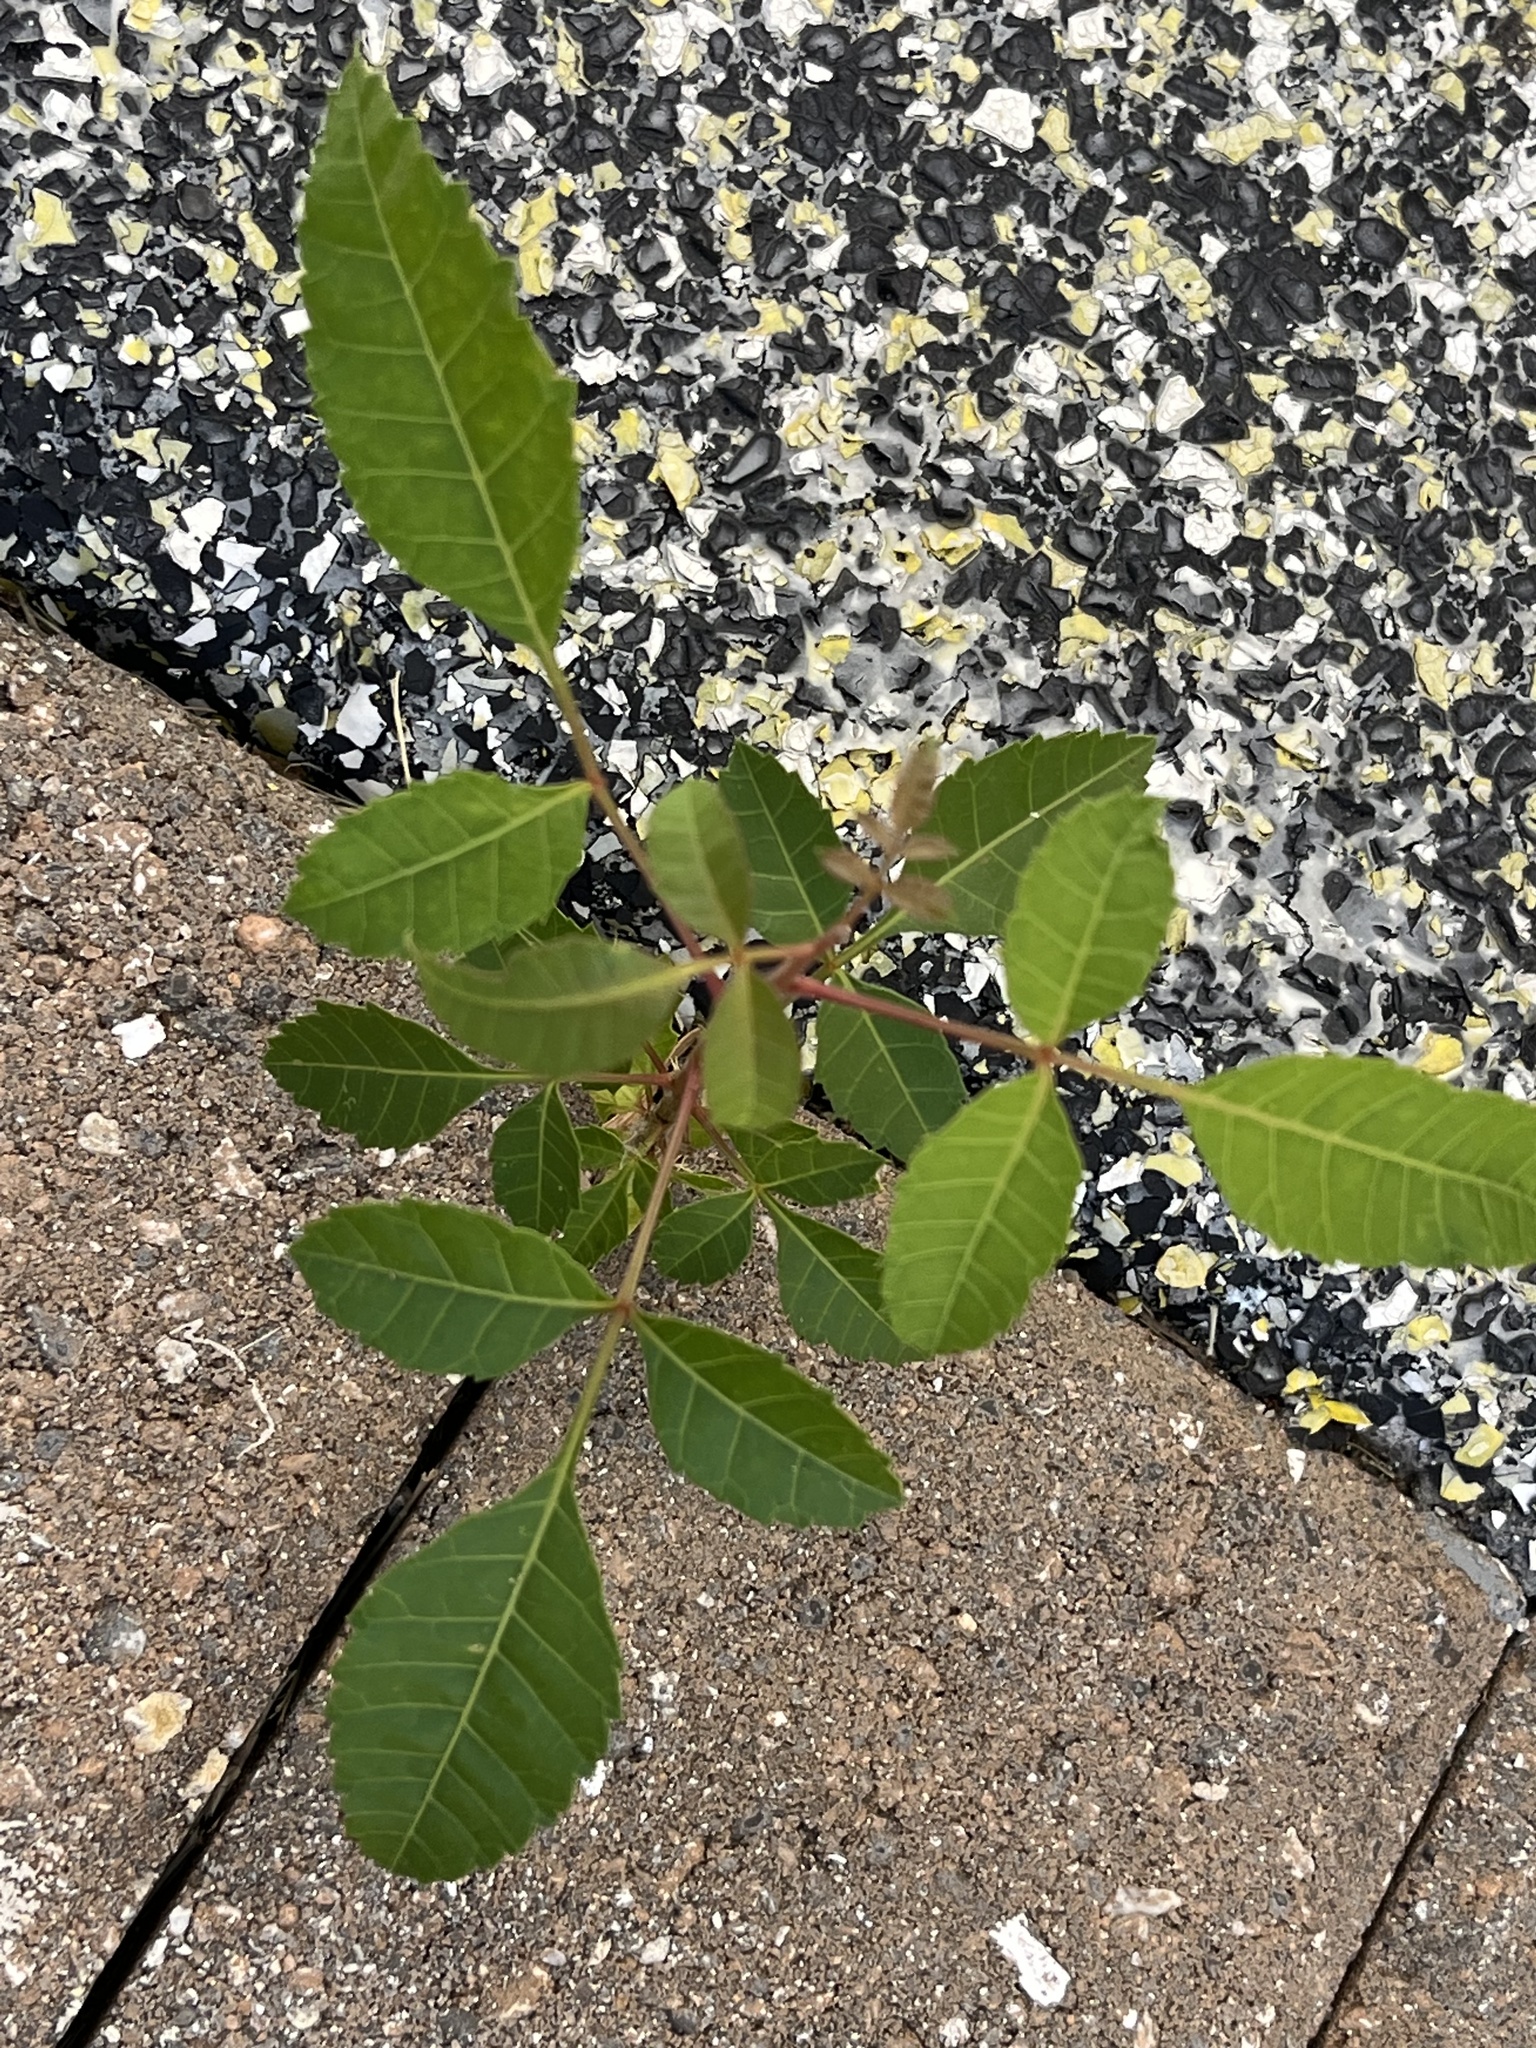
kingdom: Plantae
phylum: Tracheophyta
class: Magnoliopsida
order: Sapindales
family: Anacardiaceae
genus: Schinus
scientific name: Schinus terebinthifolia
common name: Brazilian peppertree
